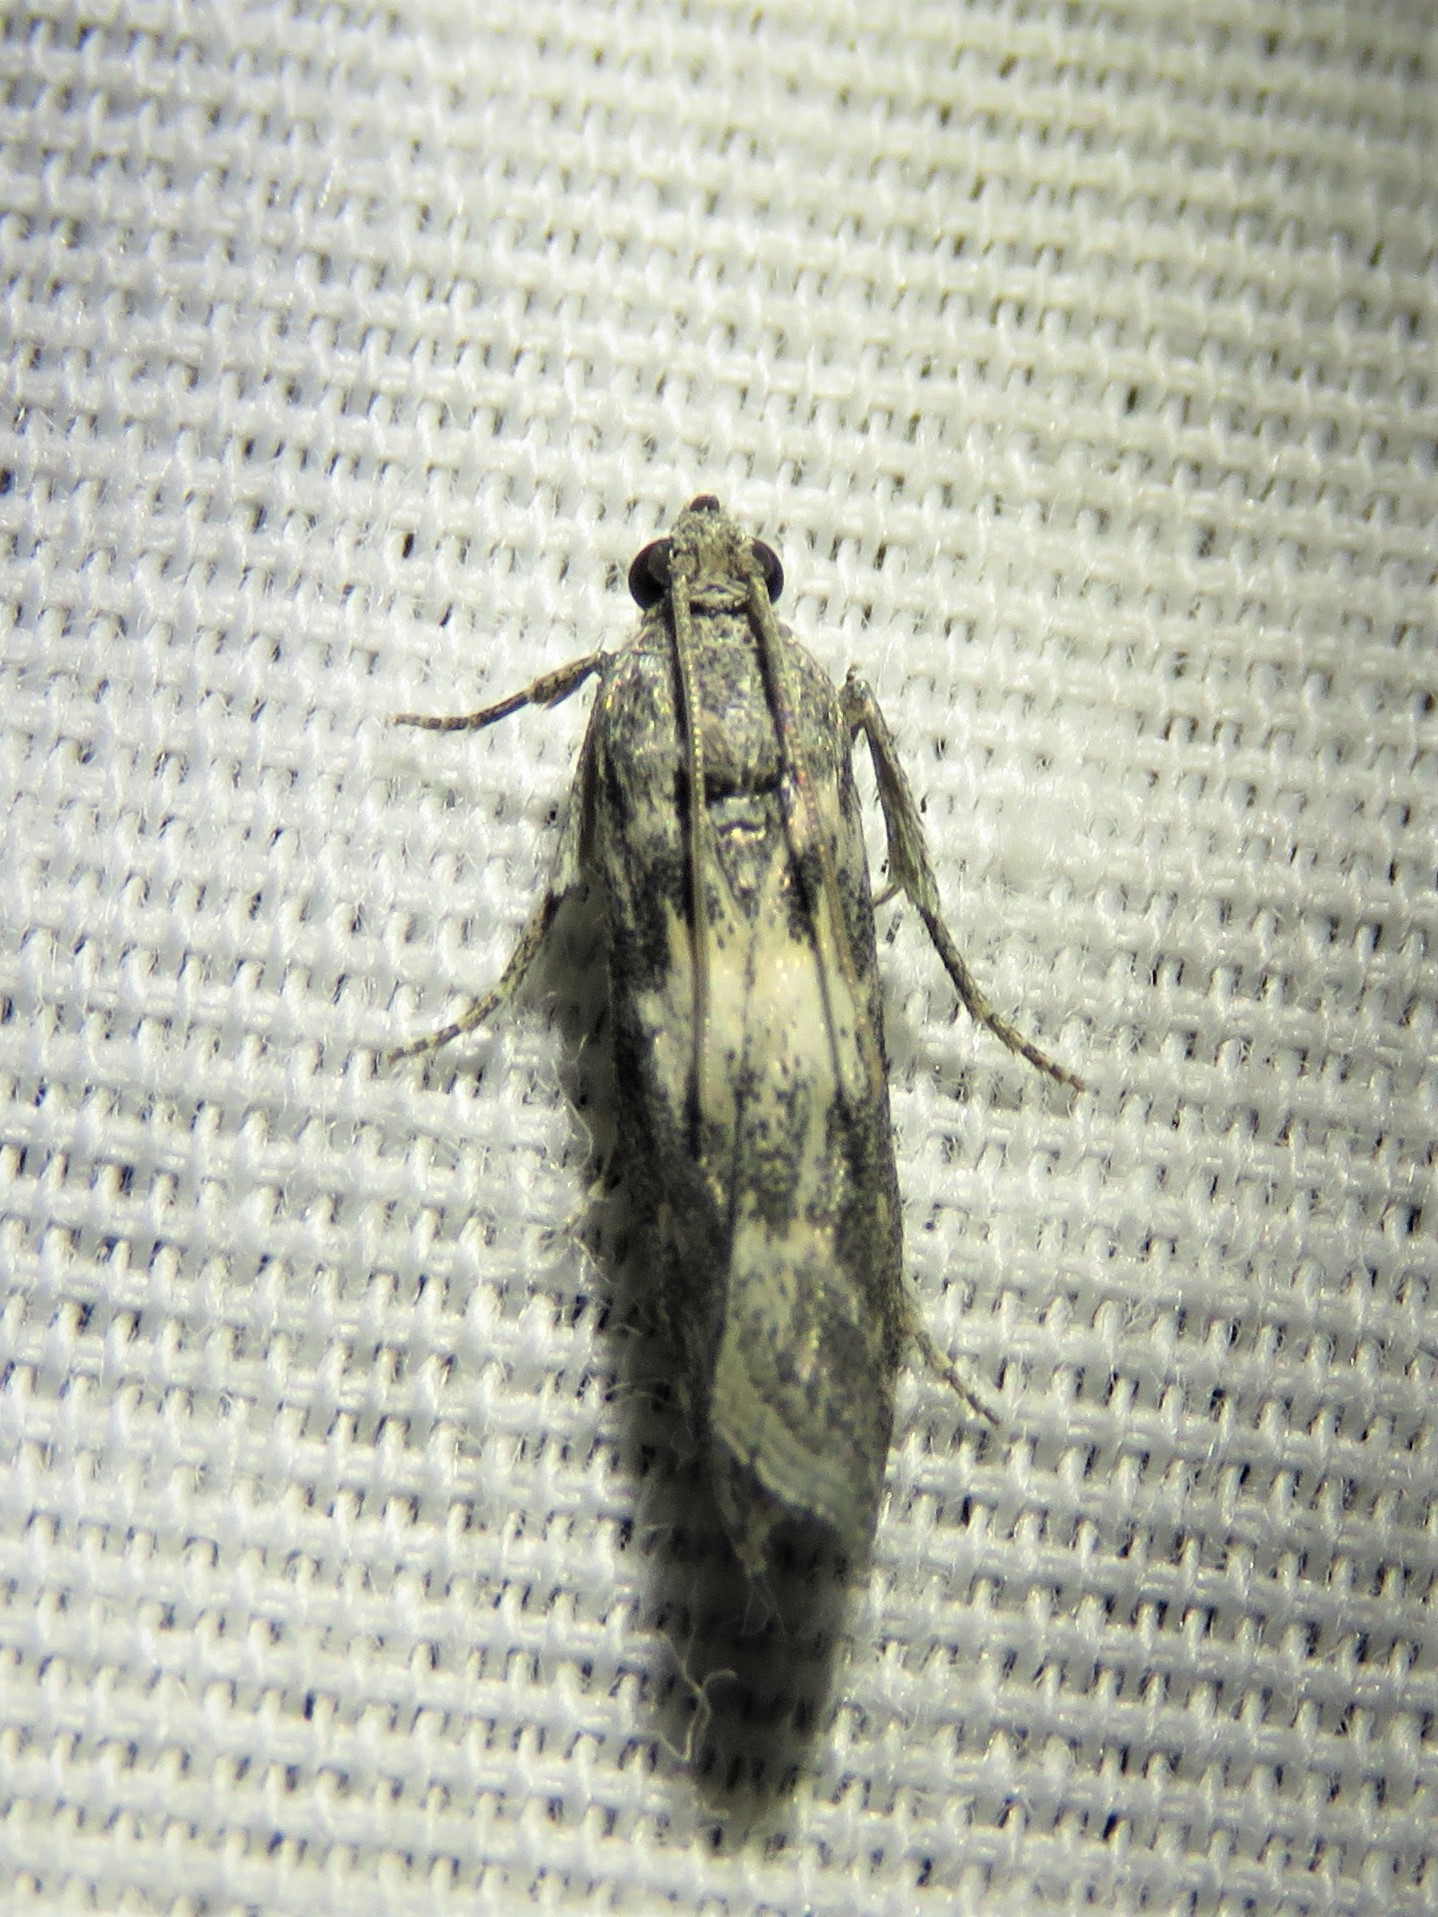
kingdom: Animalia
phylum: Arthropoda
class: Insecta
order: Lepidoptera
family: Pyralidae
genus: Tacoma
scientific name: Tacoma feriella
